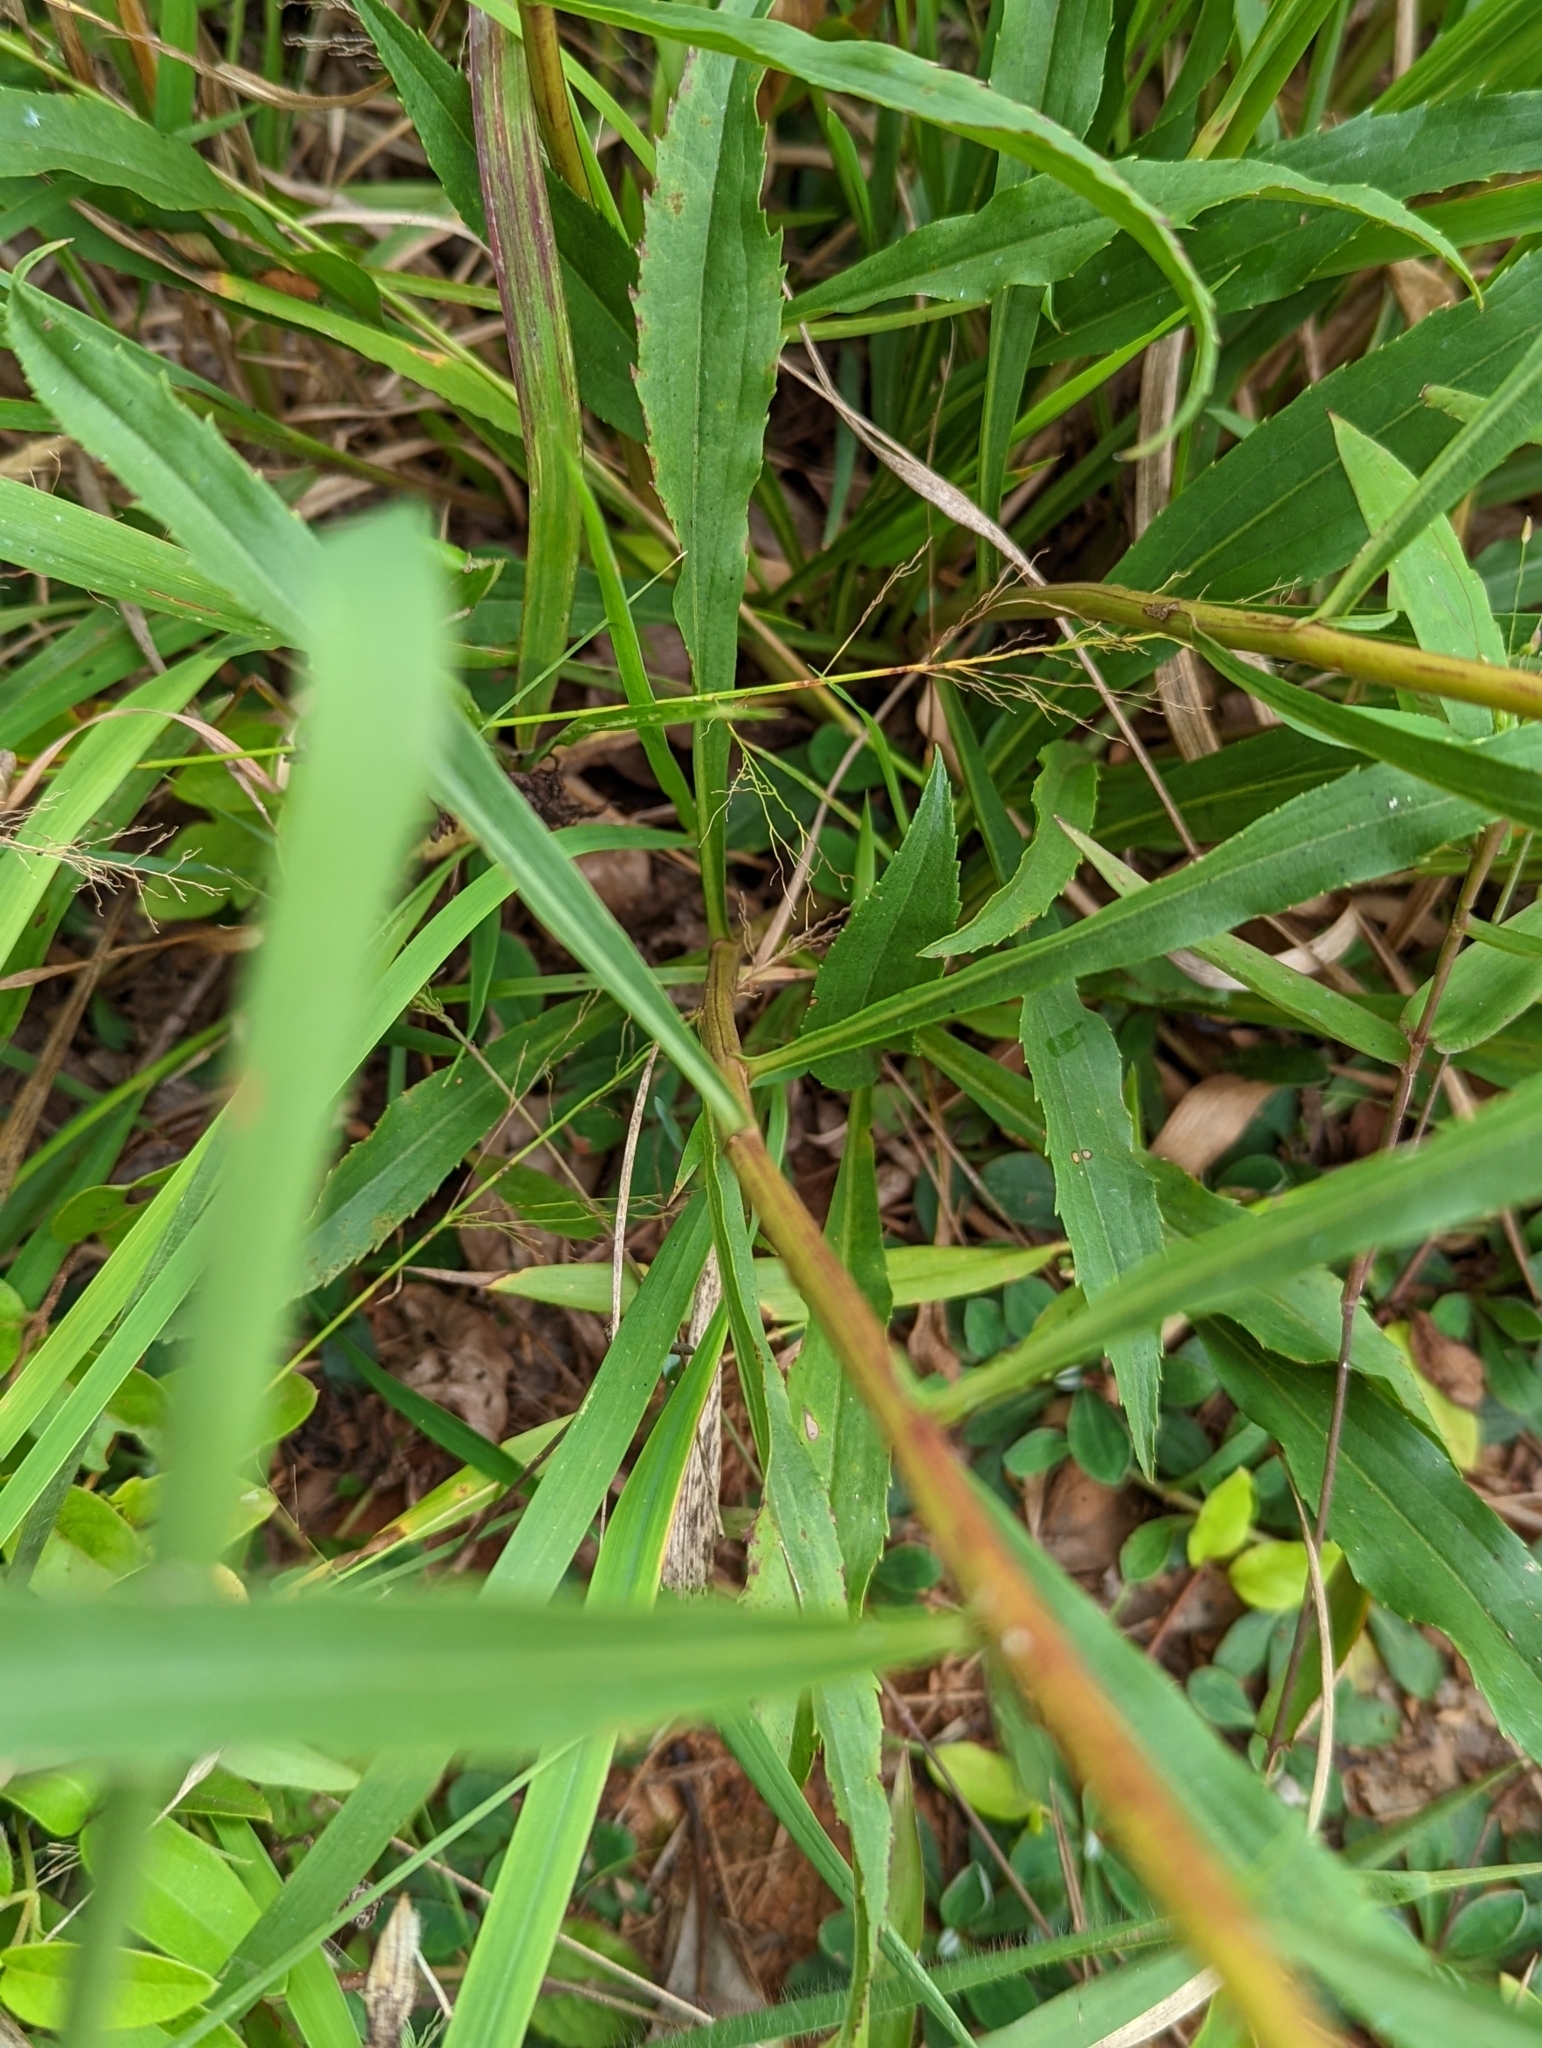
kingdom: Plantae
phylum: Tracheophyta
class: Magnoliopsida
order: Asterales
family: Asteraceae
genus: Solidago
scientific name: Solidago pinetorum
